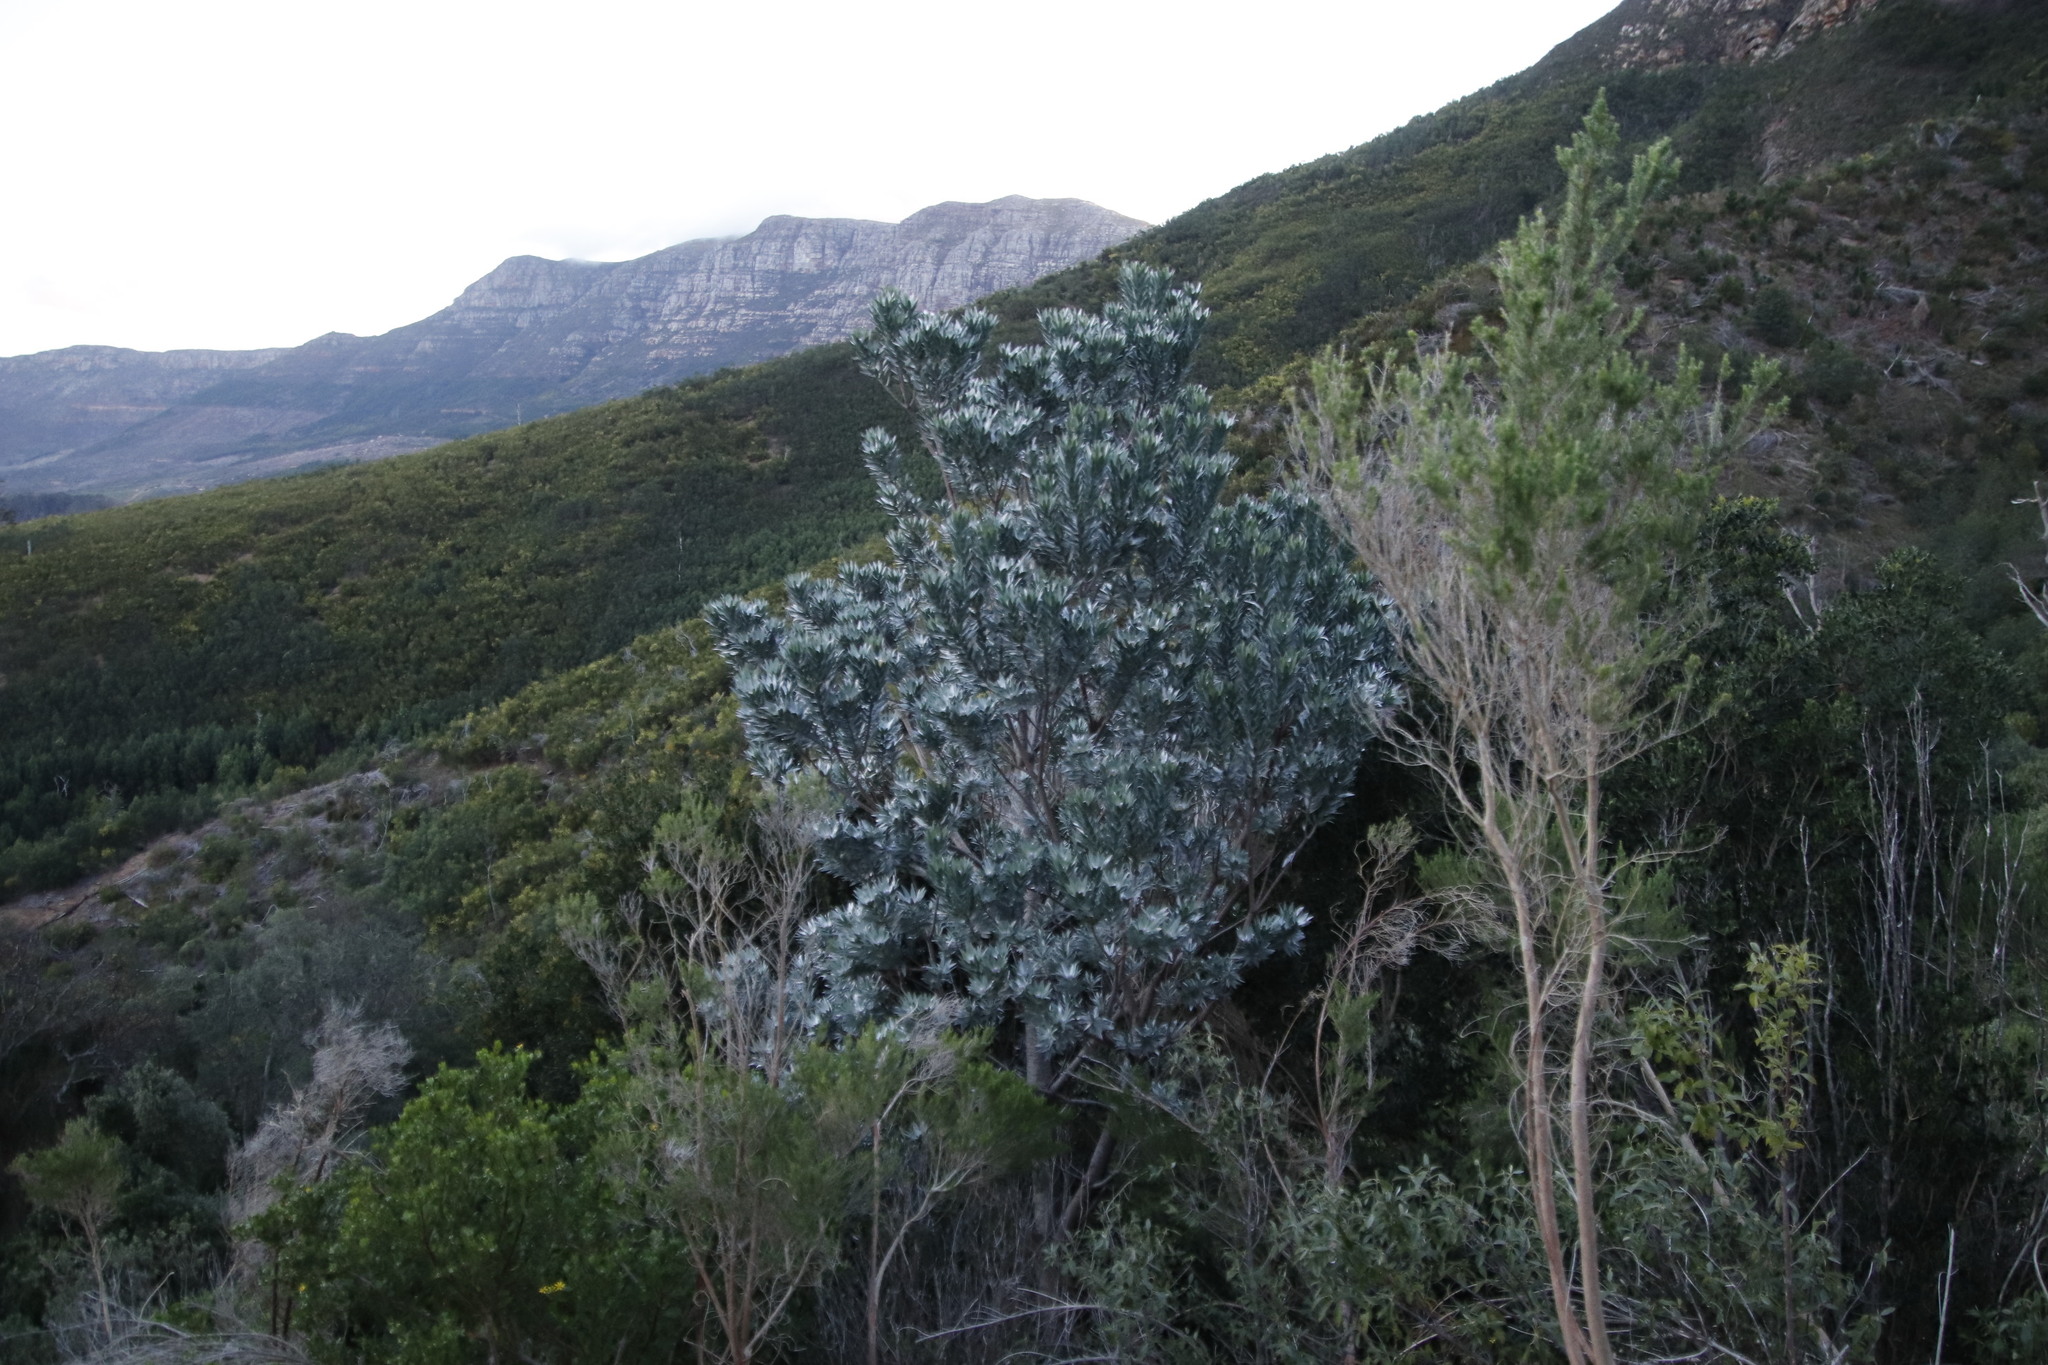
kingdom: Plantae
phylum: Tracheophyta
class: Magnoliopsida
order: Proteales
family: Proteaceae
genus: Leucadendron
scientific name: Leucadendron argenteum
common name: Cape silver tree
